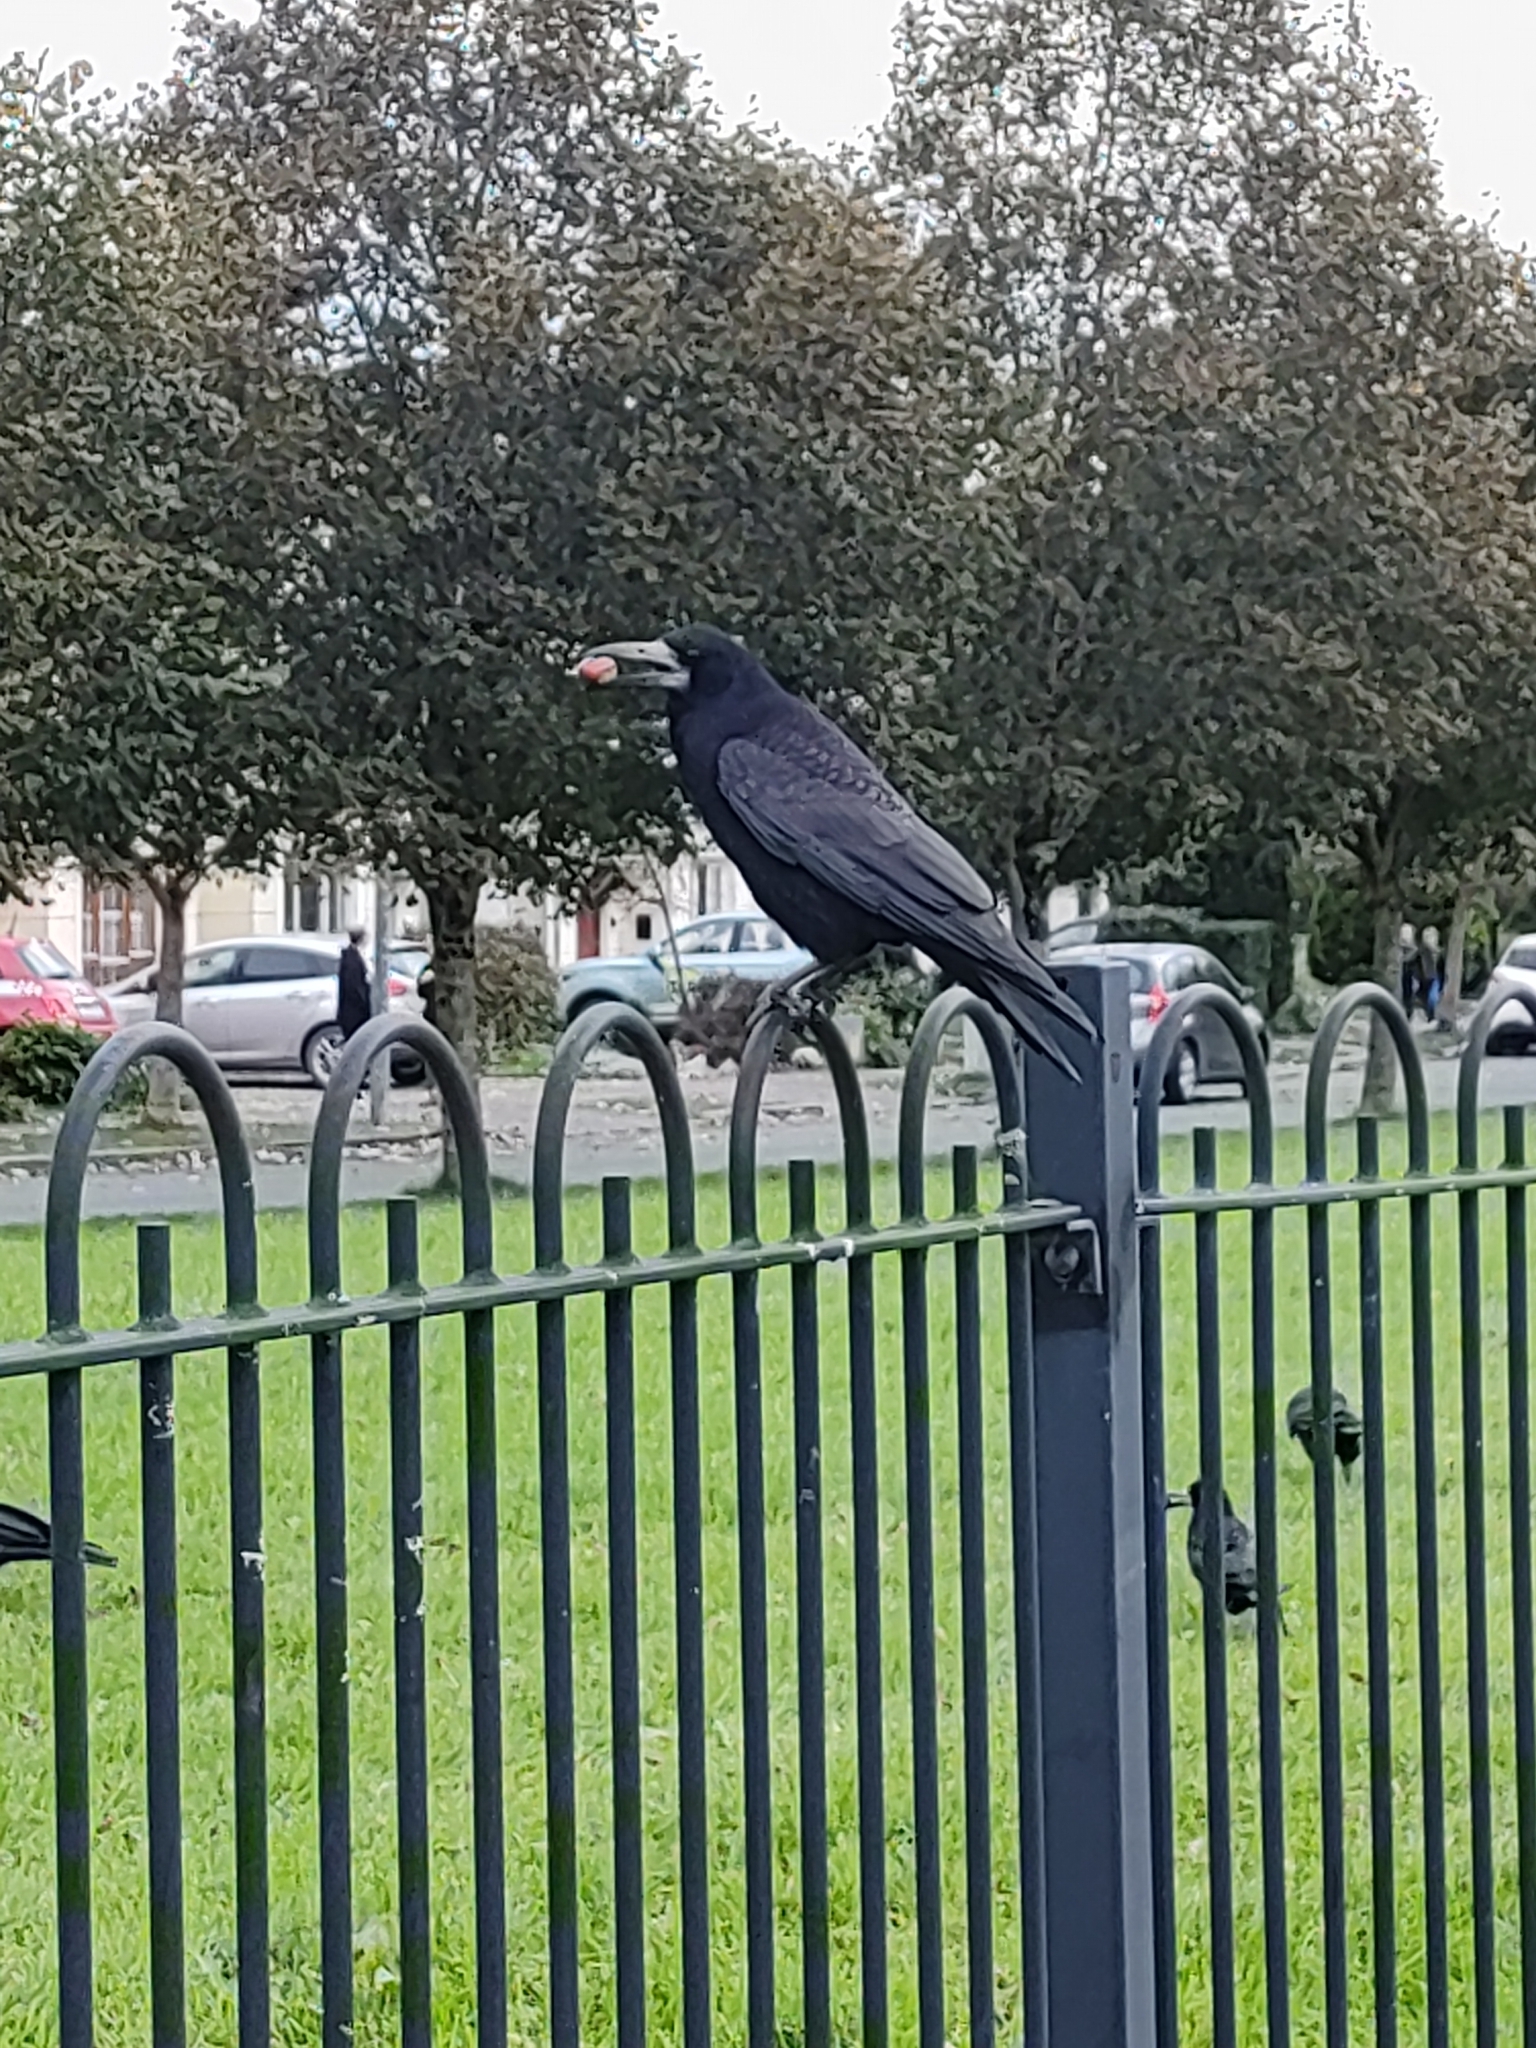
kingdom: Animalia
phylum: Chordata
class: Aves
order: Passeriformes
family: Corvidae
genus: Corvus
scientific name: Corvus frugilegus
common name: Rook
